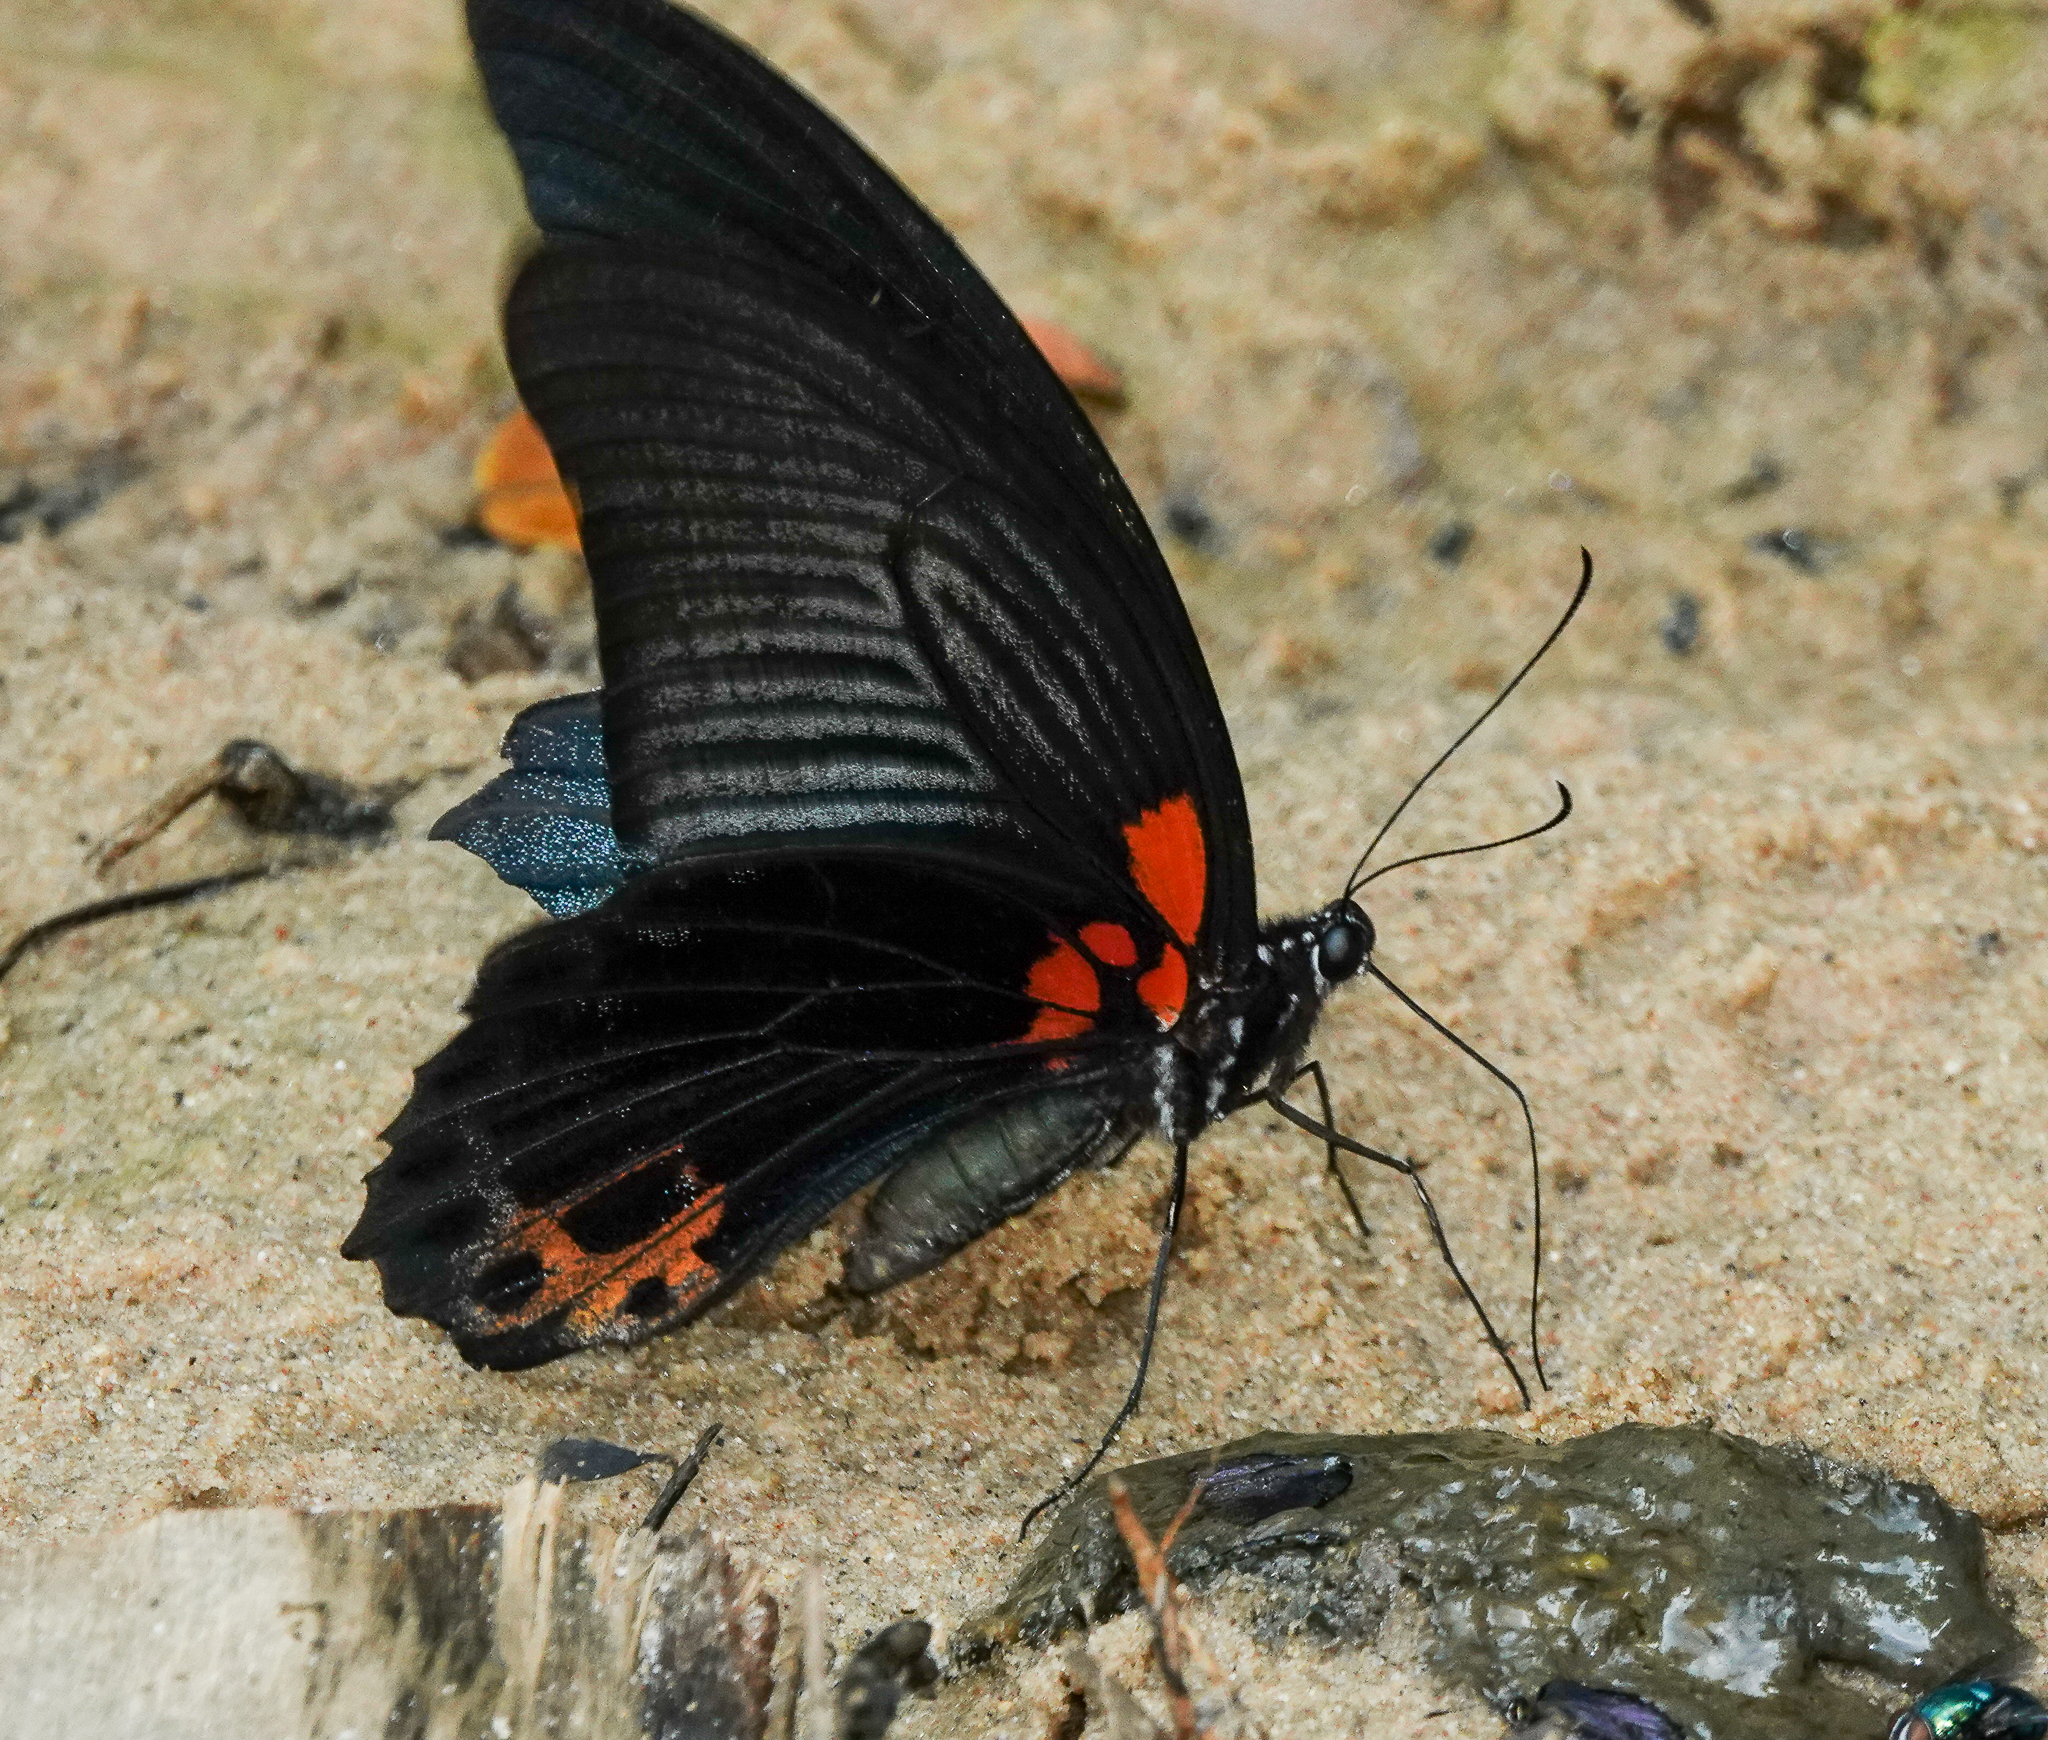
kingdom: Animalia
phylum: Arthropoda
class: Insecta
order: Lepidoptera
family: Papilionidae
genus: Papilio
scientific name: Papilio memnon
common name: Great mormon
